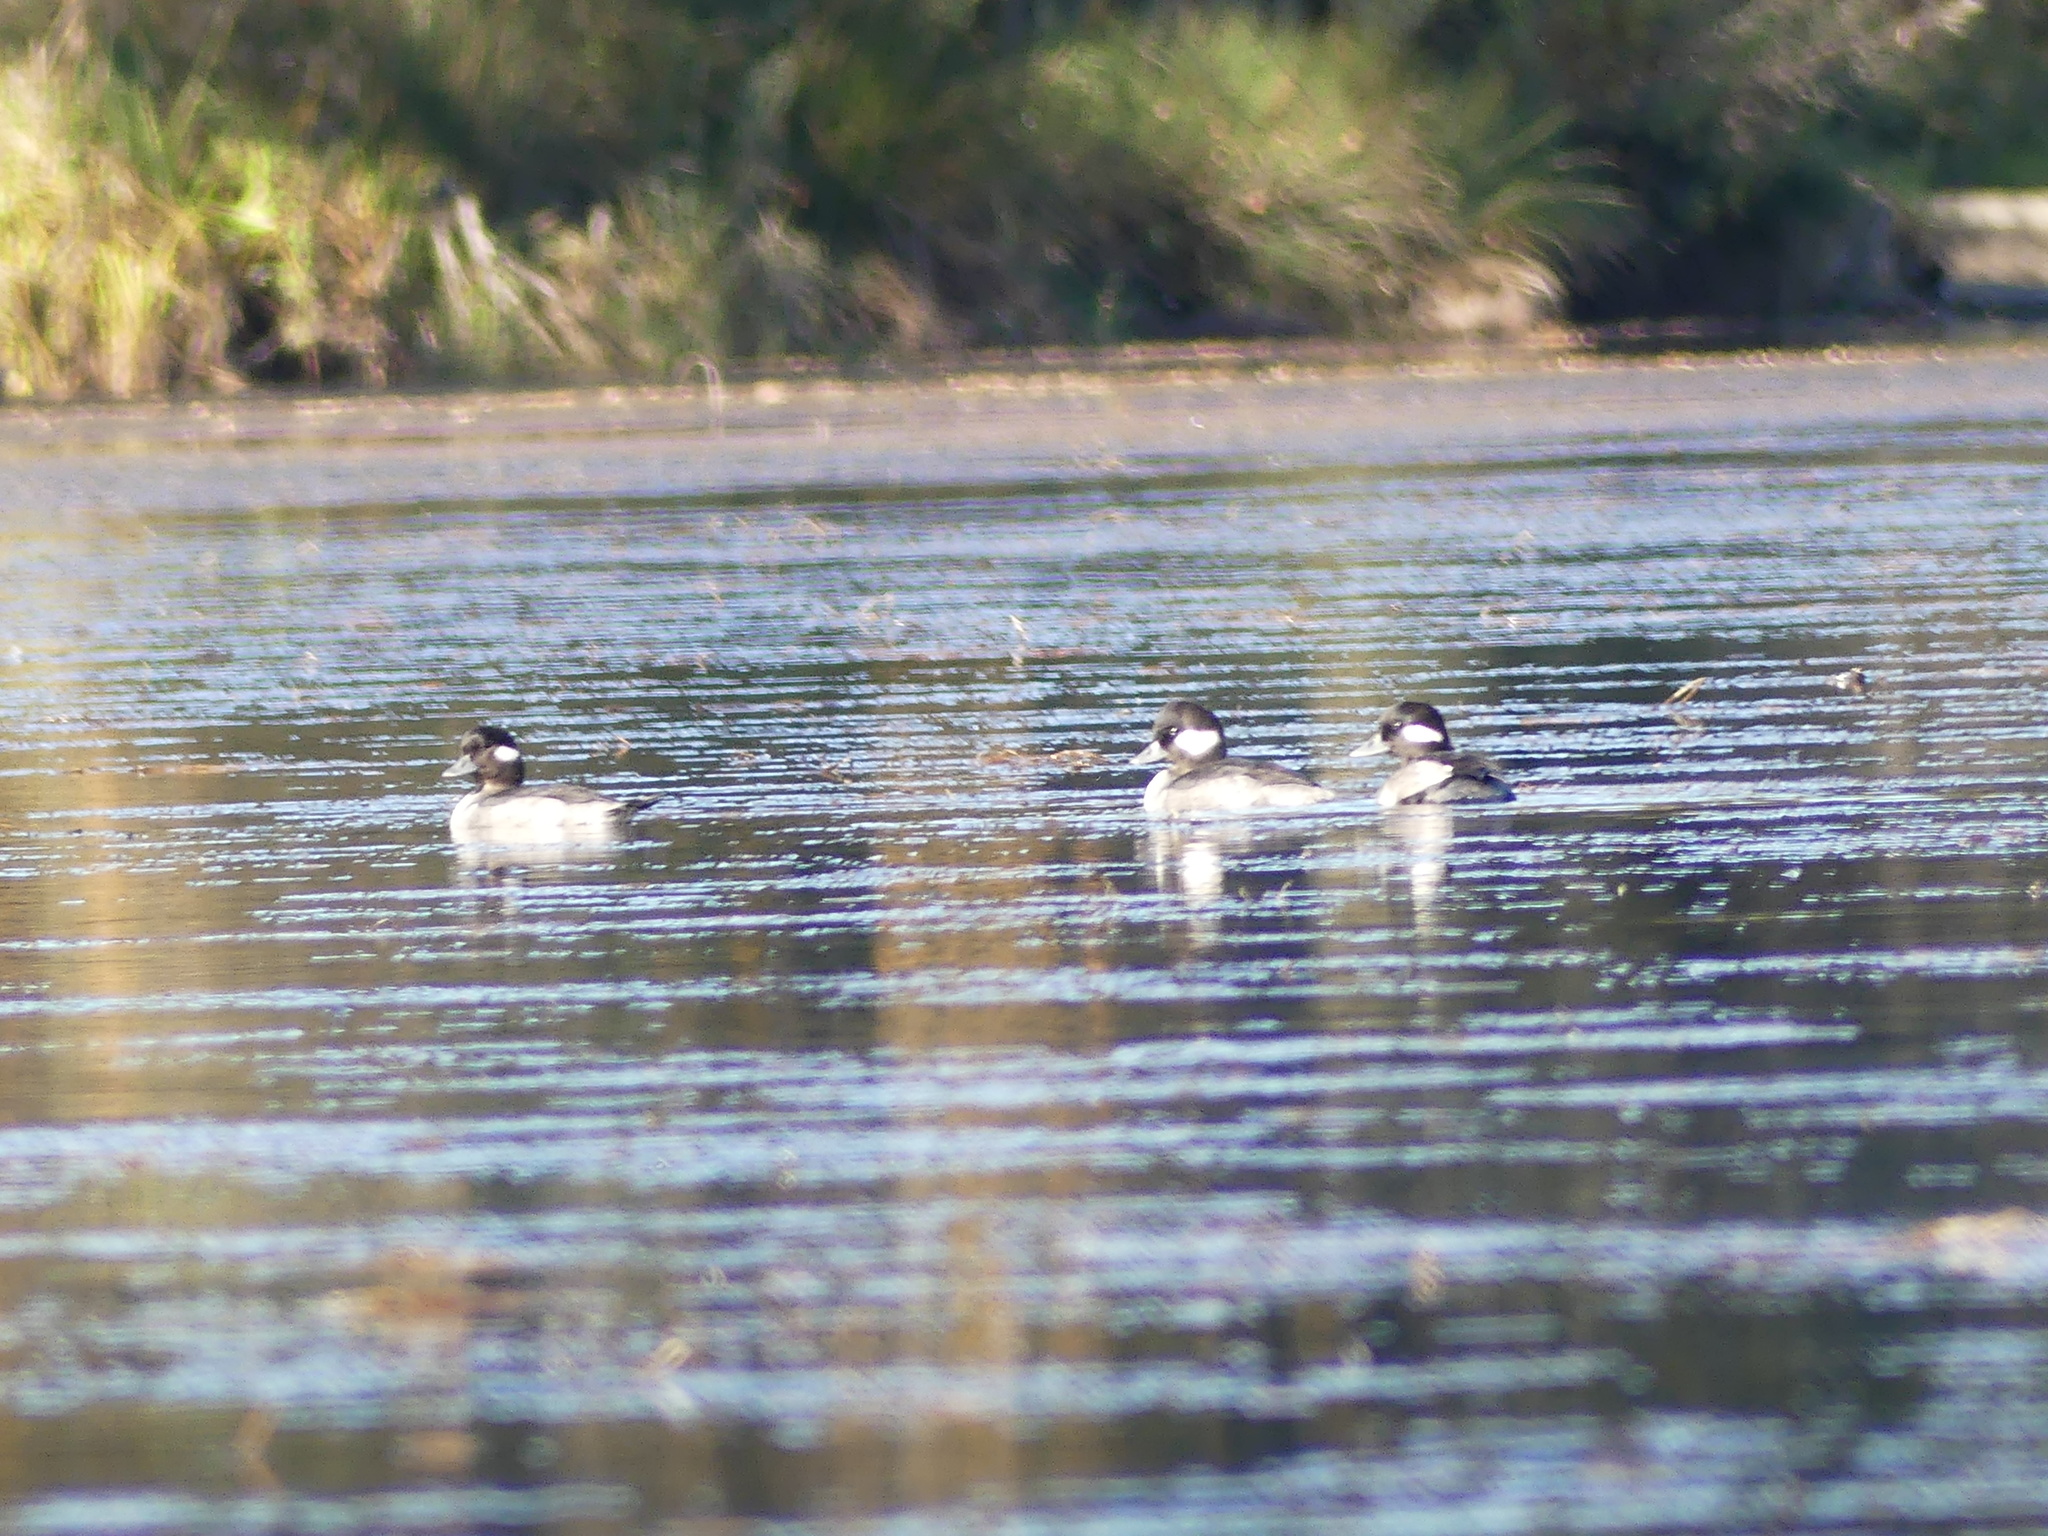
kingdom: Animalia
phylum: Chordata
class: Aves
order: Anseriformes
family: Anatidae
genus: Bucephala
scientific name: Bucephala albeola
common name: Bufflehead
